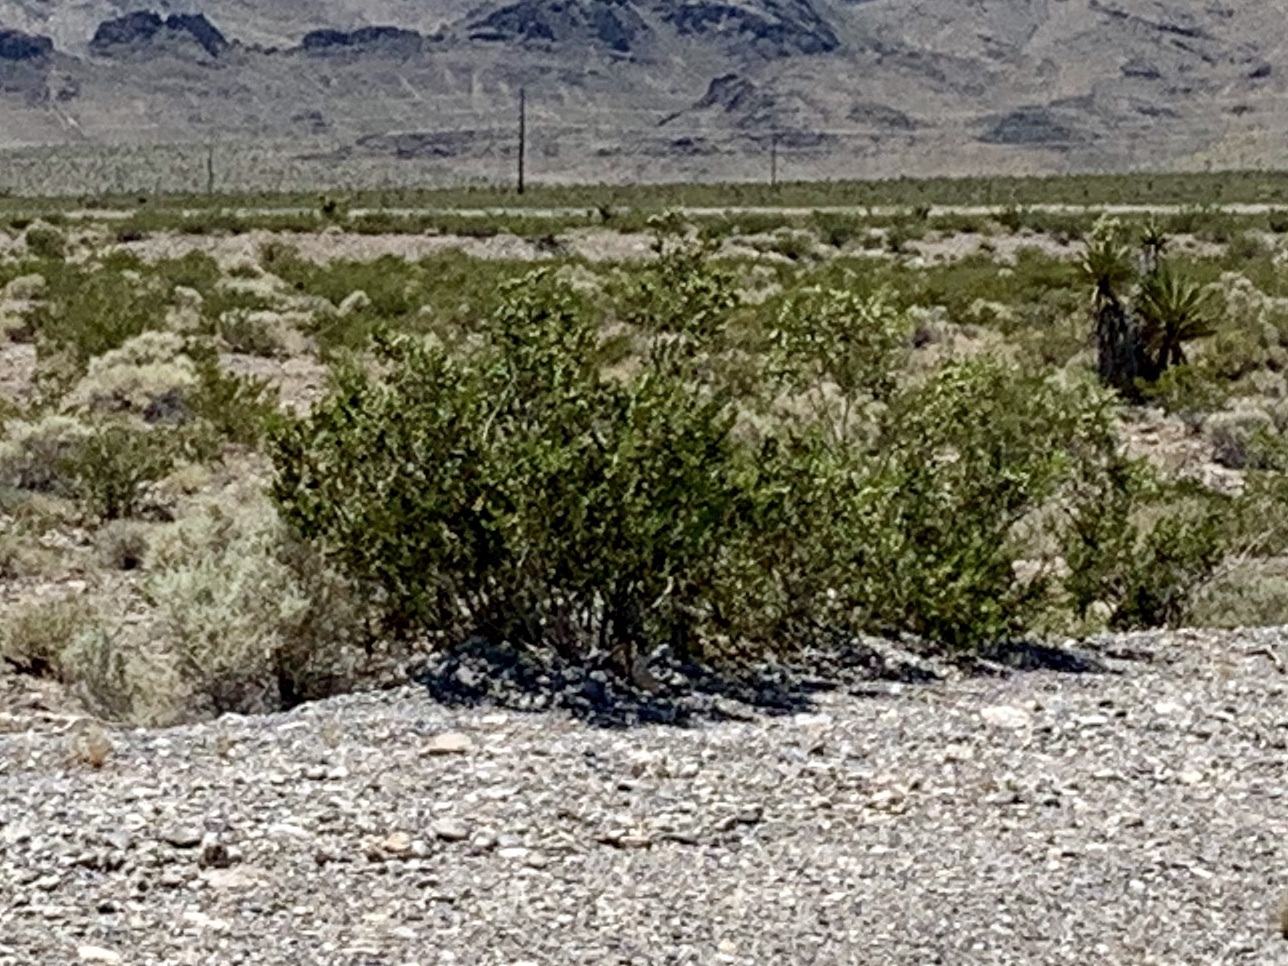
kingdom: Plantae
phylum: Tracheophyta
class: Magnoliopsida
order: Zygophyllales
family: Zygophyllaceae
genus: Larrea
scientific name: Larrea tridentata
